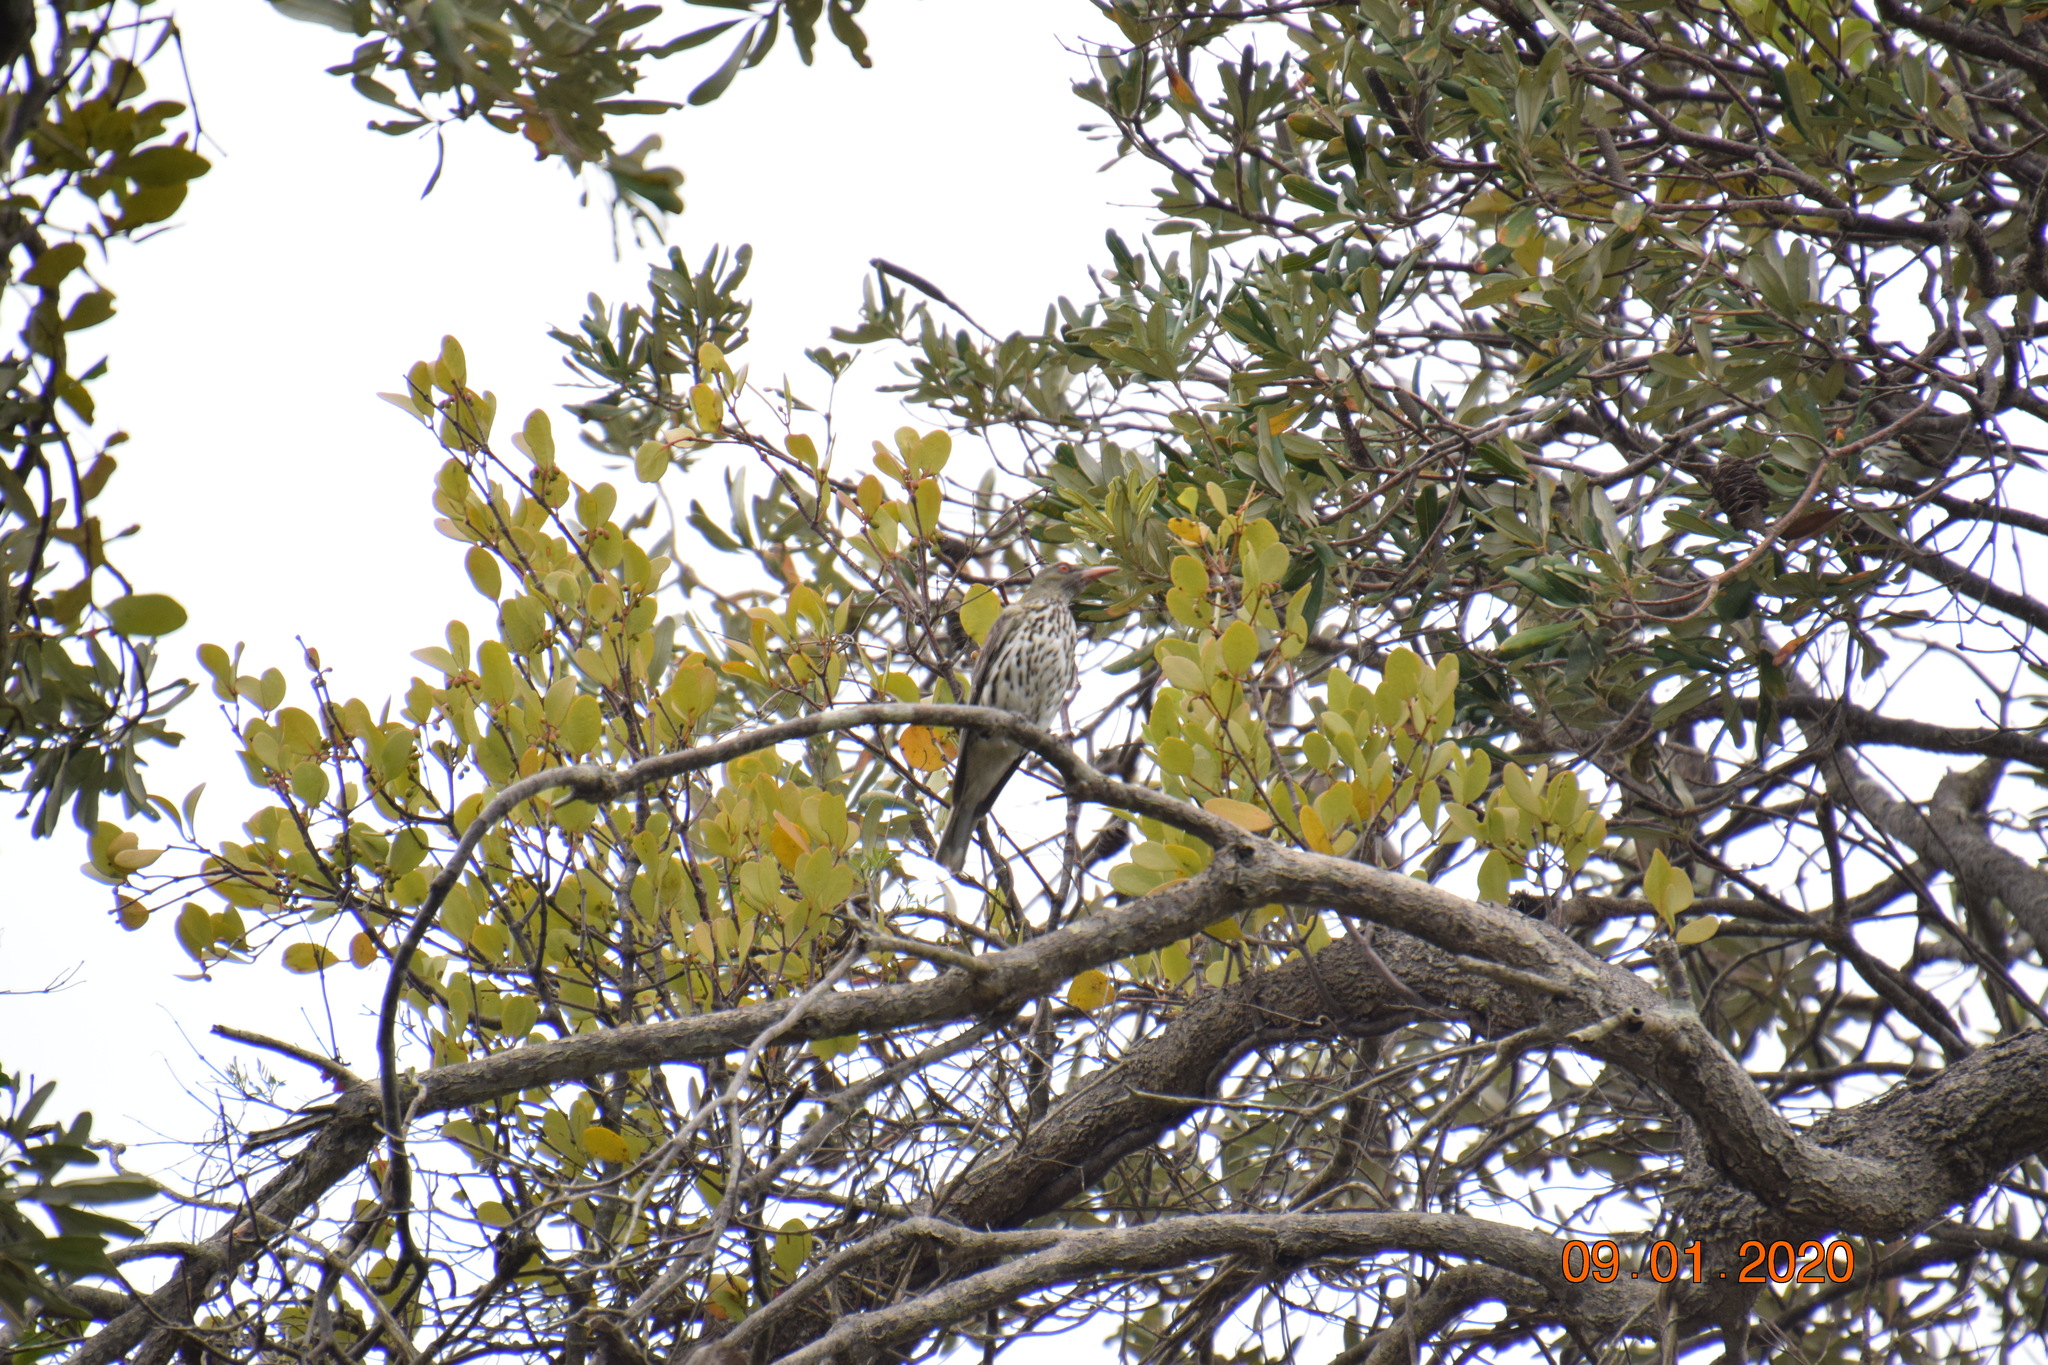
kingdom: Animalia
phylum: Chordata
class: Aves
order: Passeriformes
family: Oriolidae
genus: Oriolus
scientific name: Oriolus sagittatus
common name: Olive-backed oriole
